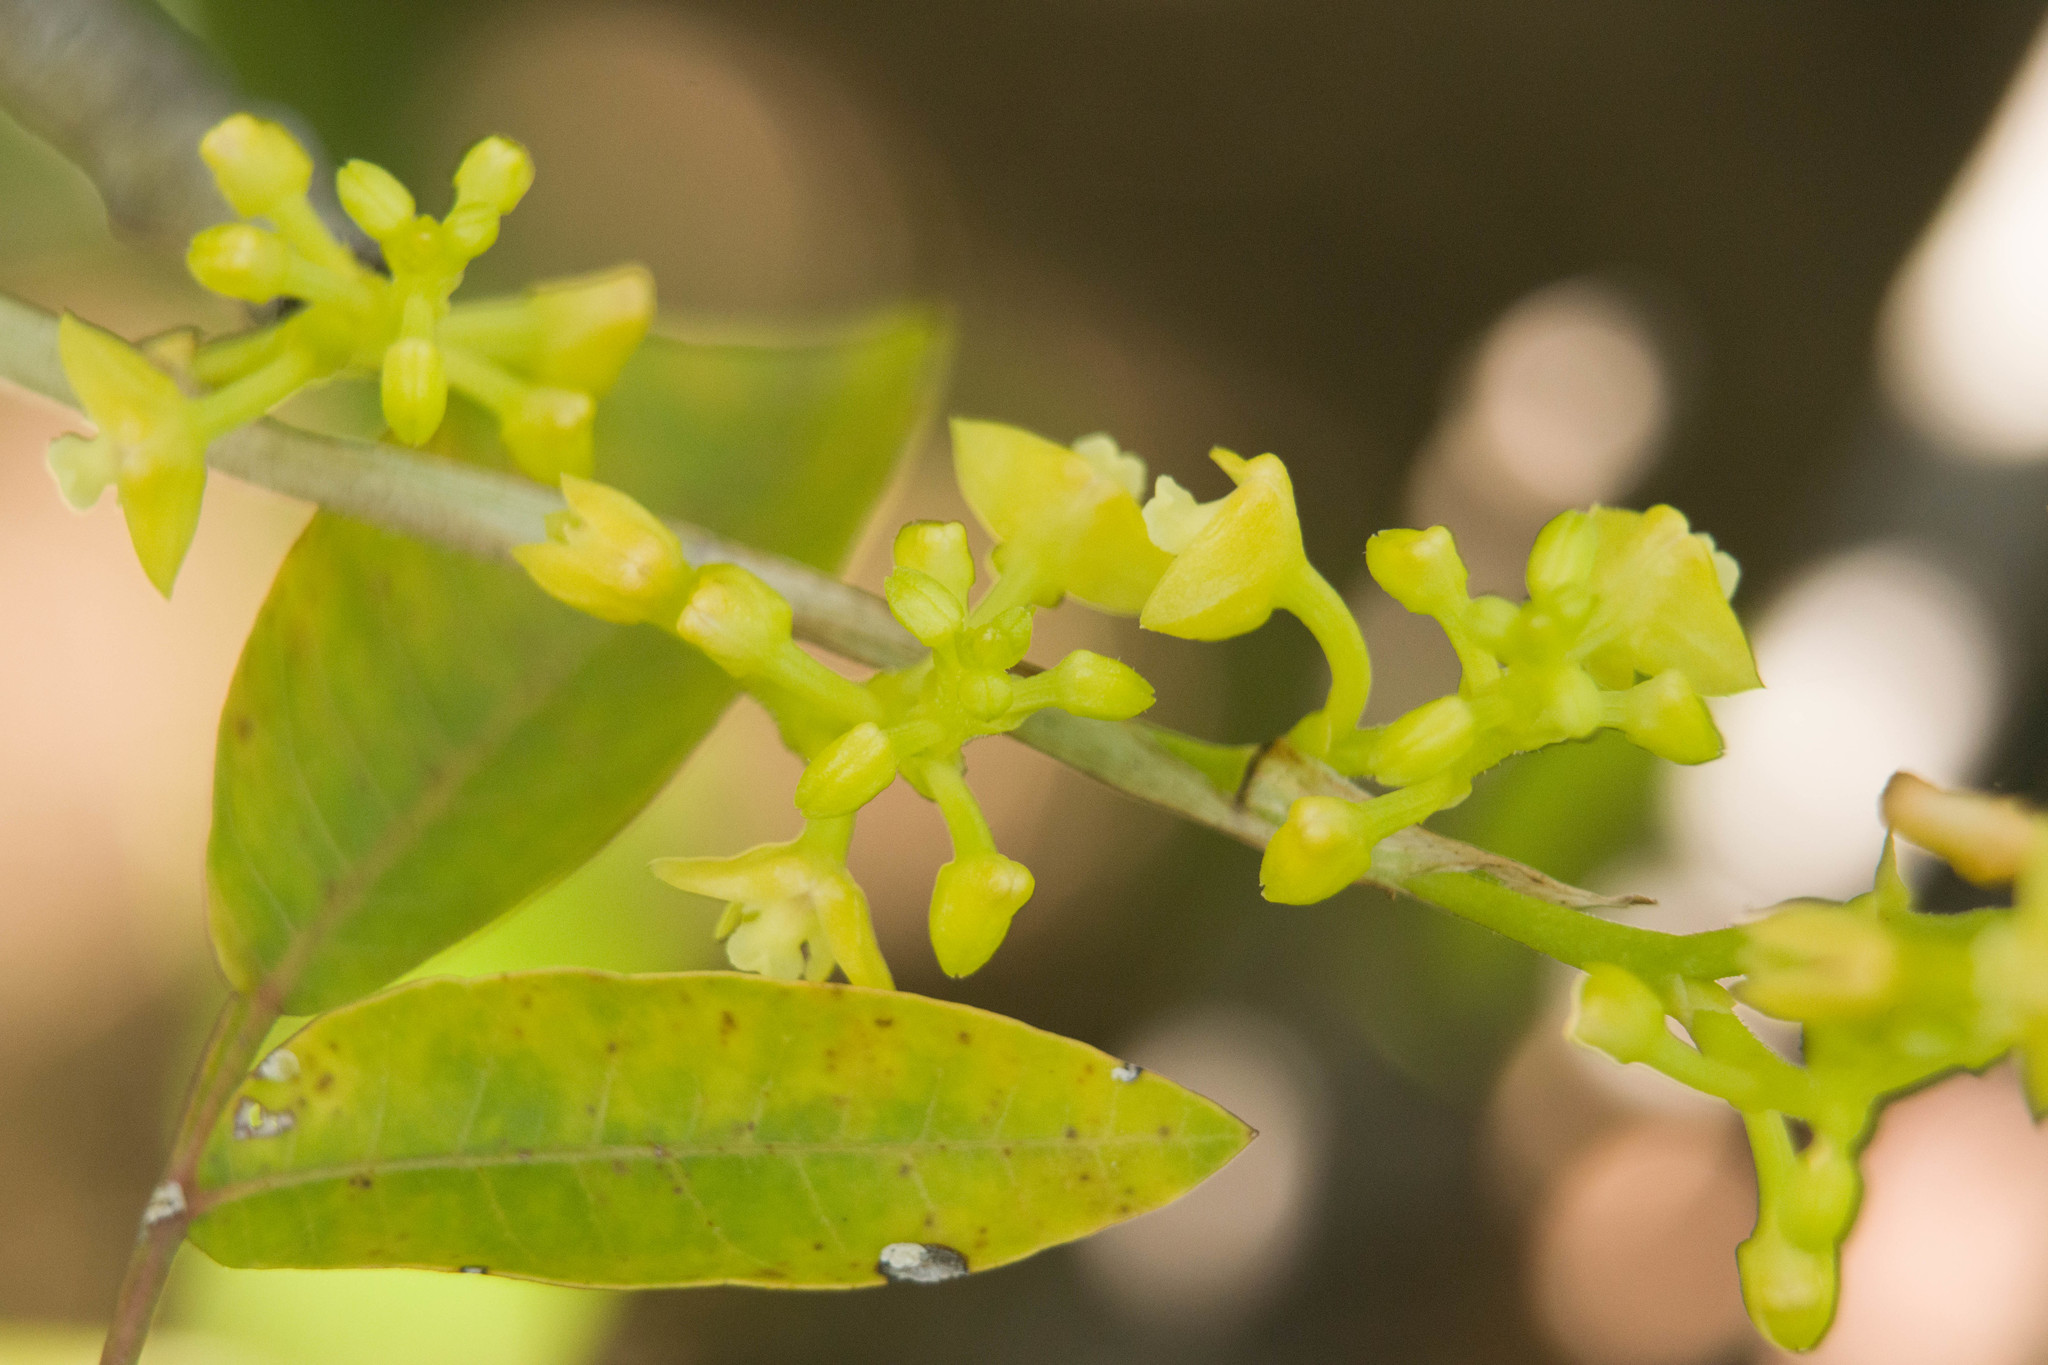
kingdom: Plantae
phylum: Tracheophyta
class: Liliopsida
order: Asparagales
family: Orchidaceae
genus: Polystachya
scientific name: Polystachya concreta
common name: Greater yellowspike orchid
